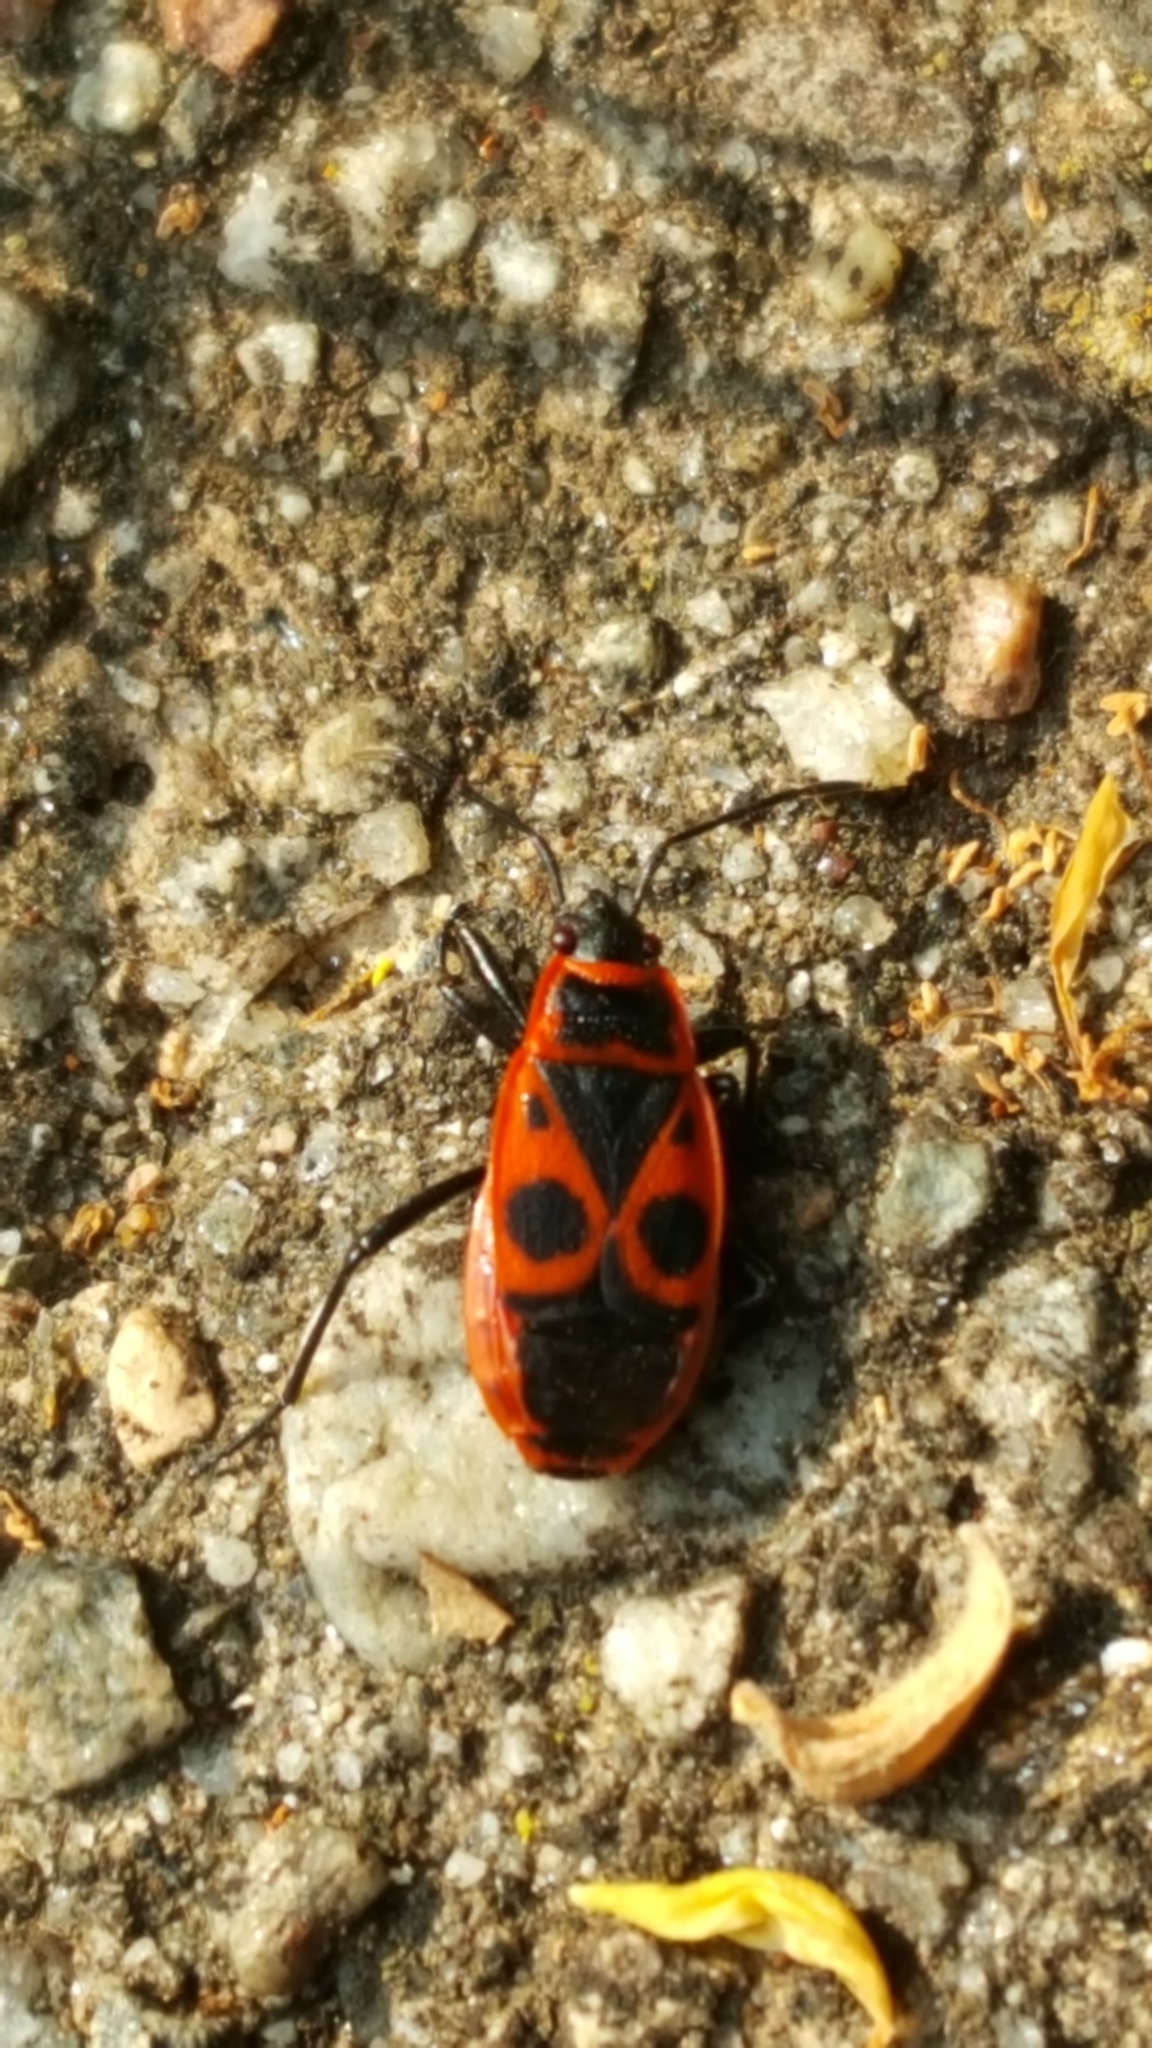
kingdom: Animalia
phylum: Arthropoda
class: Insecta
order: Hemiptera
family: Pyrrhocoridae
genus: Pyrrhocoris
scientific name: Pyrrhocoris apterus
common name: Firebug
